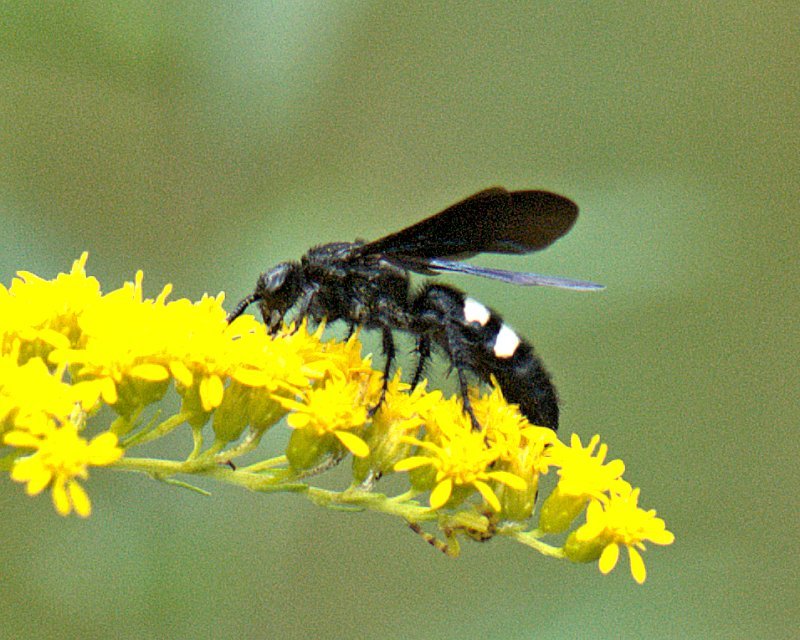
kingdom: Animalia
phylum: Arthropoda
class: Insecta
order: Hymenoptera
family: Scoliidae
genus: Scolia
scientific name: Scolia bicincta
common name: Double-banded scoliid wasp
